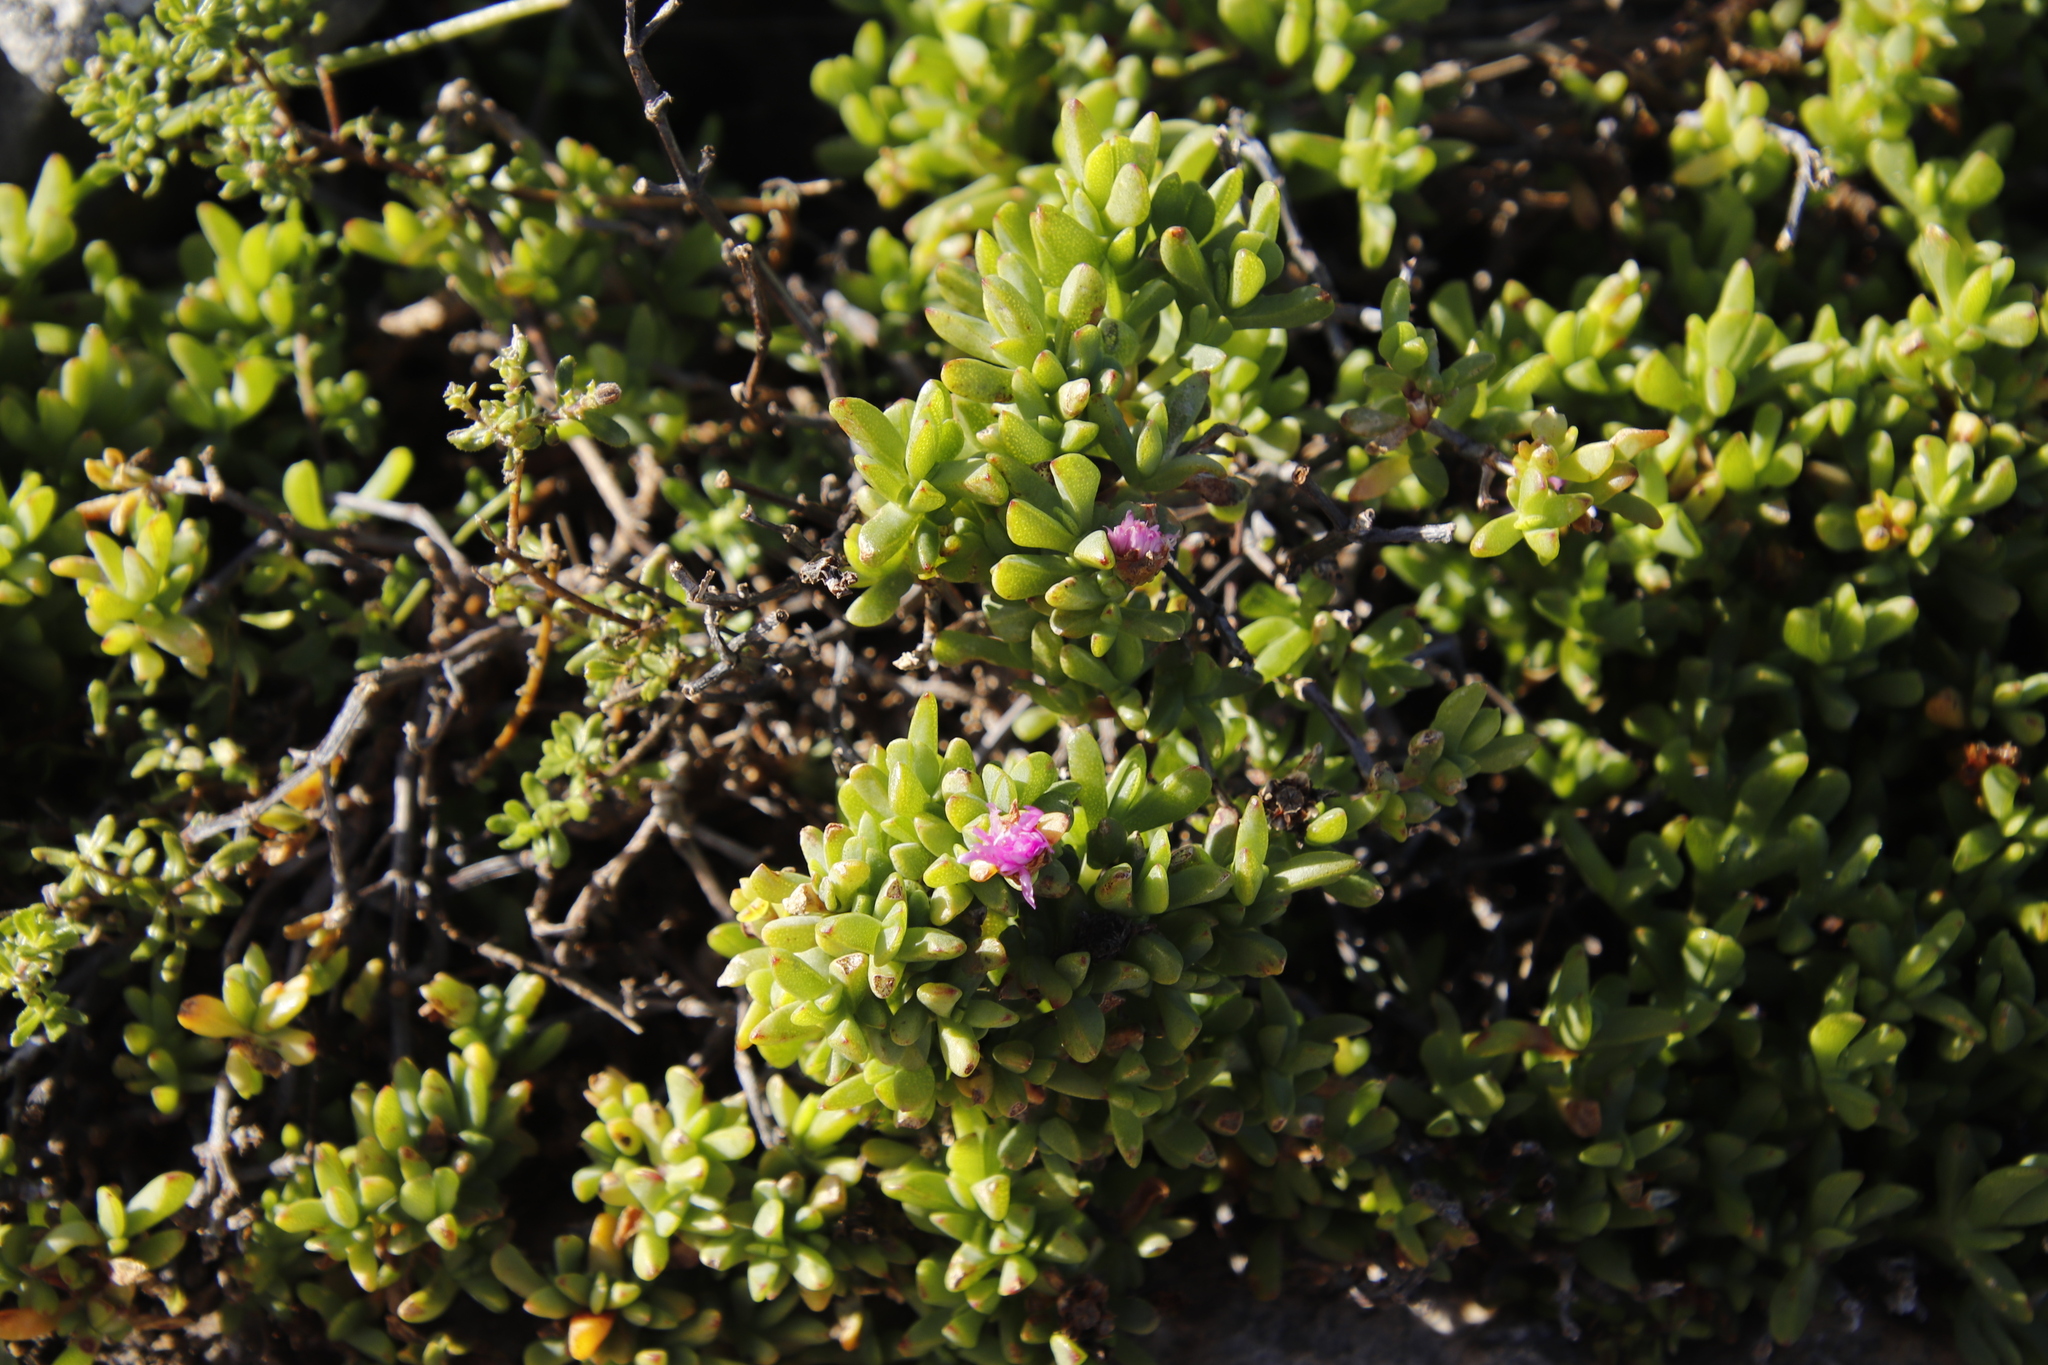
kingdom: Plantae
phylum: Tracheophyta
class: Magnoliopsida
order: Caryophyllales
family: Aizoaceae
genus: Oscularia
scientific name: Oscularia falciformis
